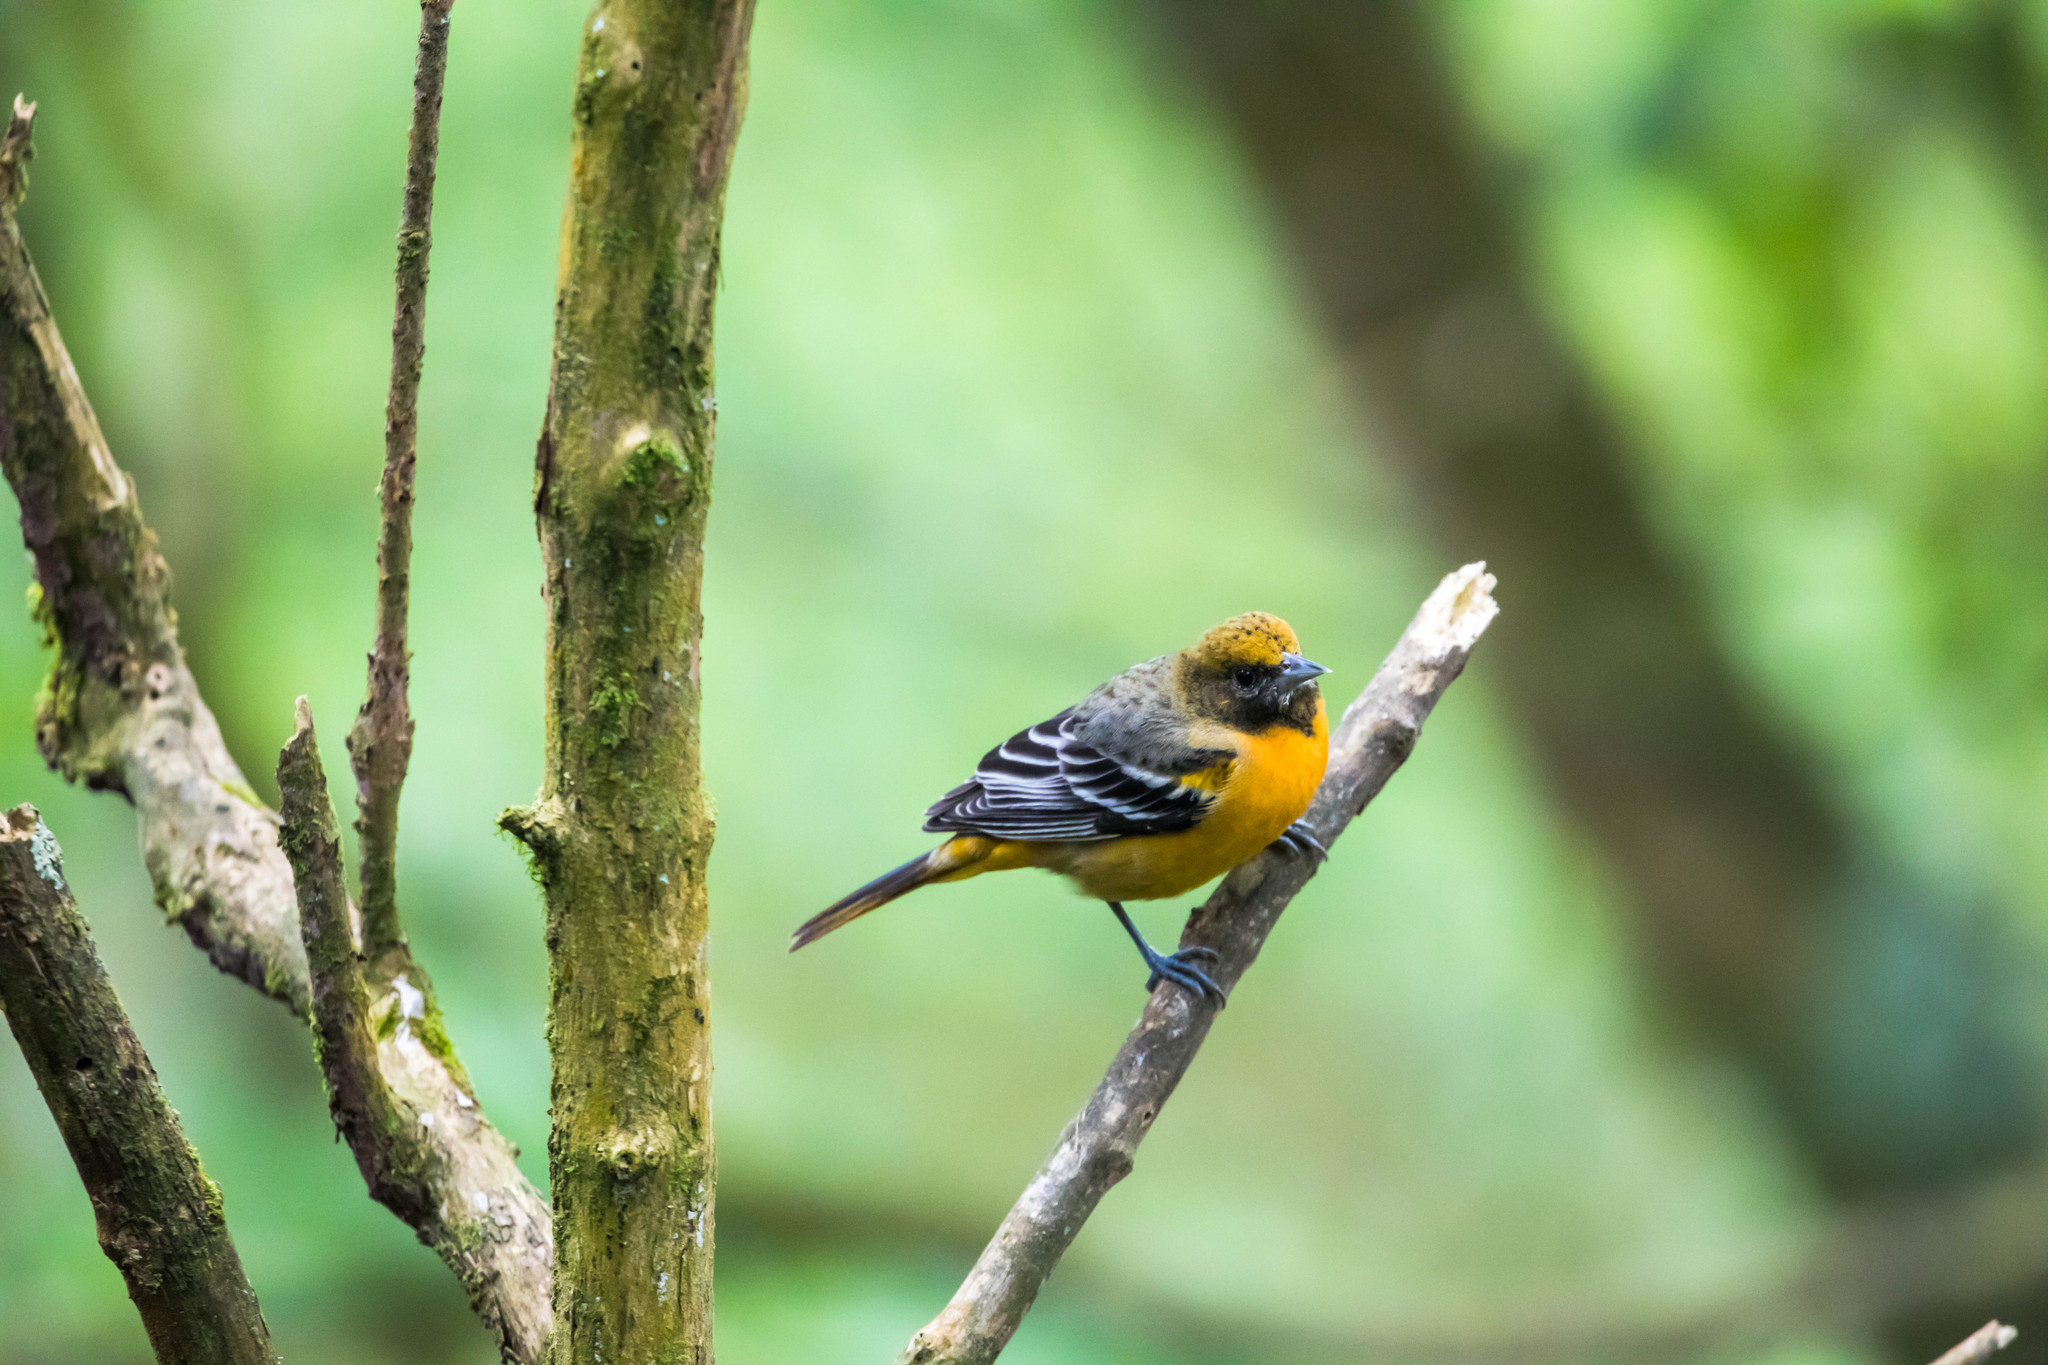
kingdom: Animalia
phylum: Chordata
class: Aves
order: Passeriformes
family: Icteridae
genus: Icterus
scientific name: Icterus galbula
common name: Baltimore oriole
